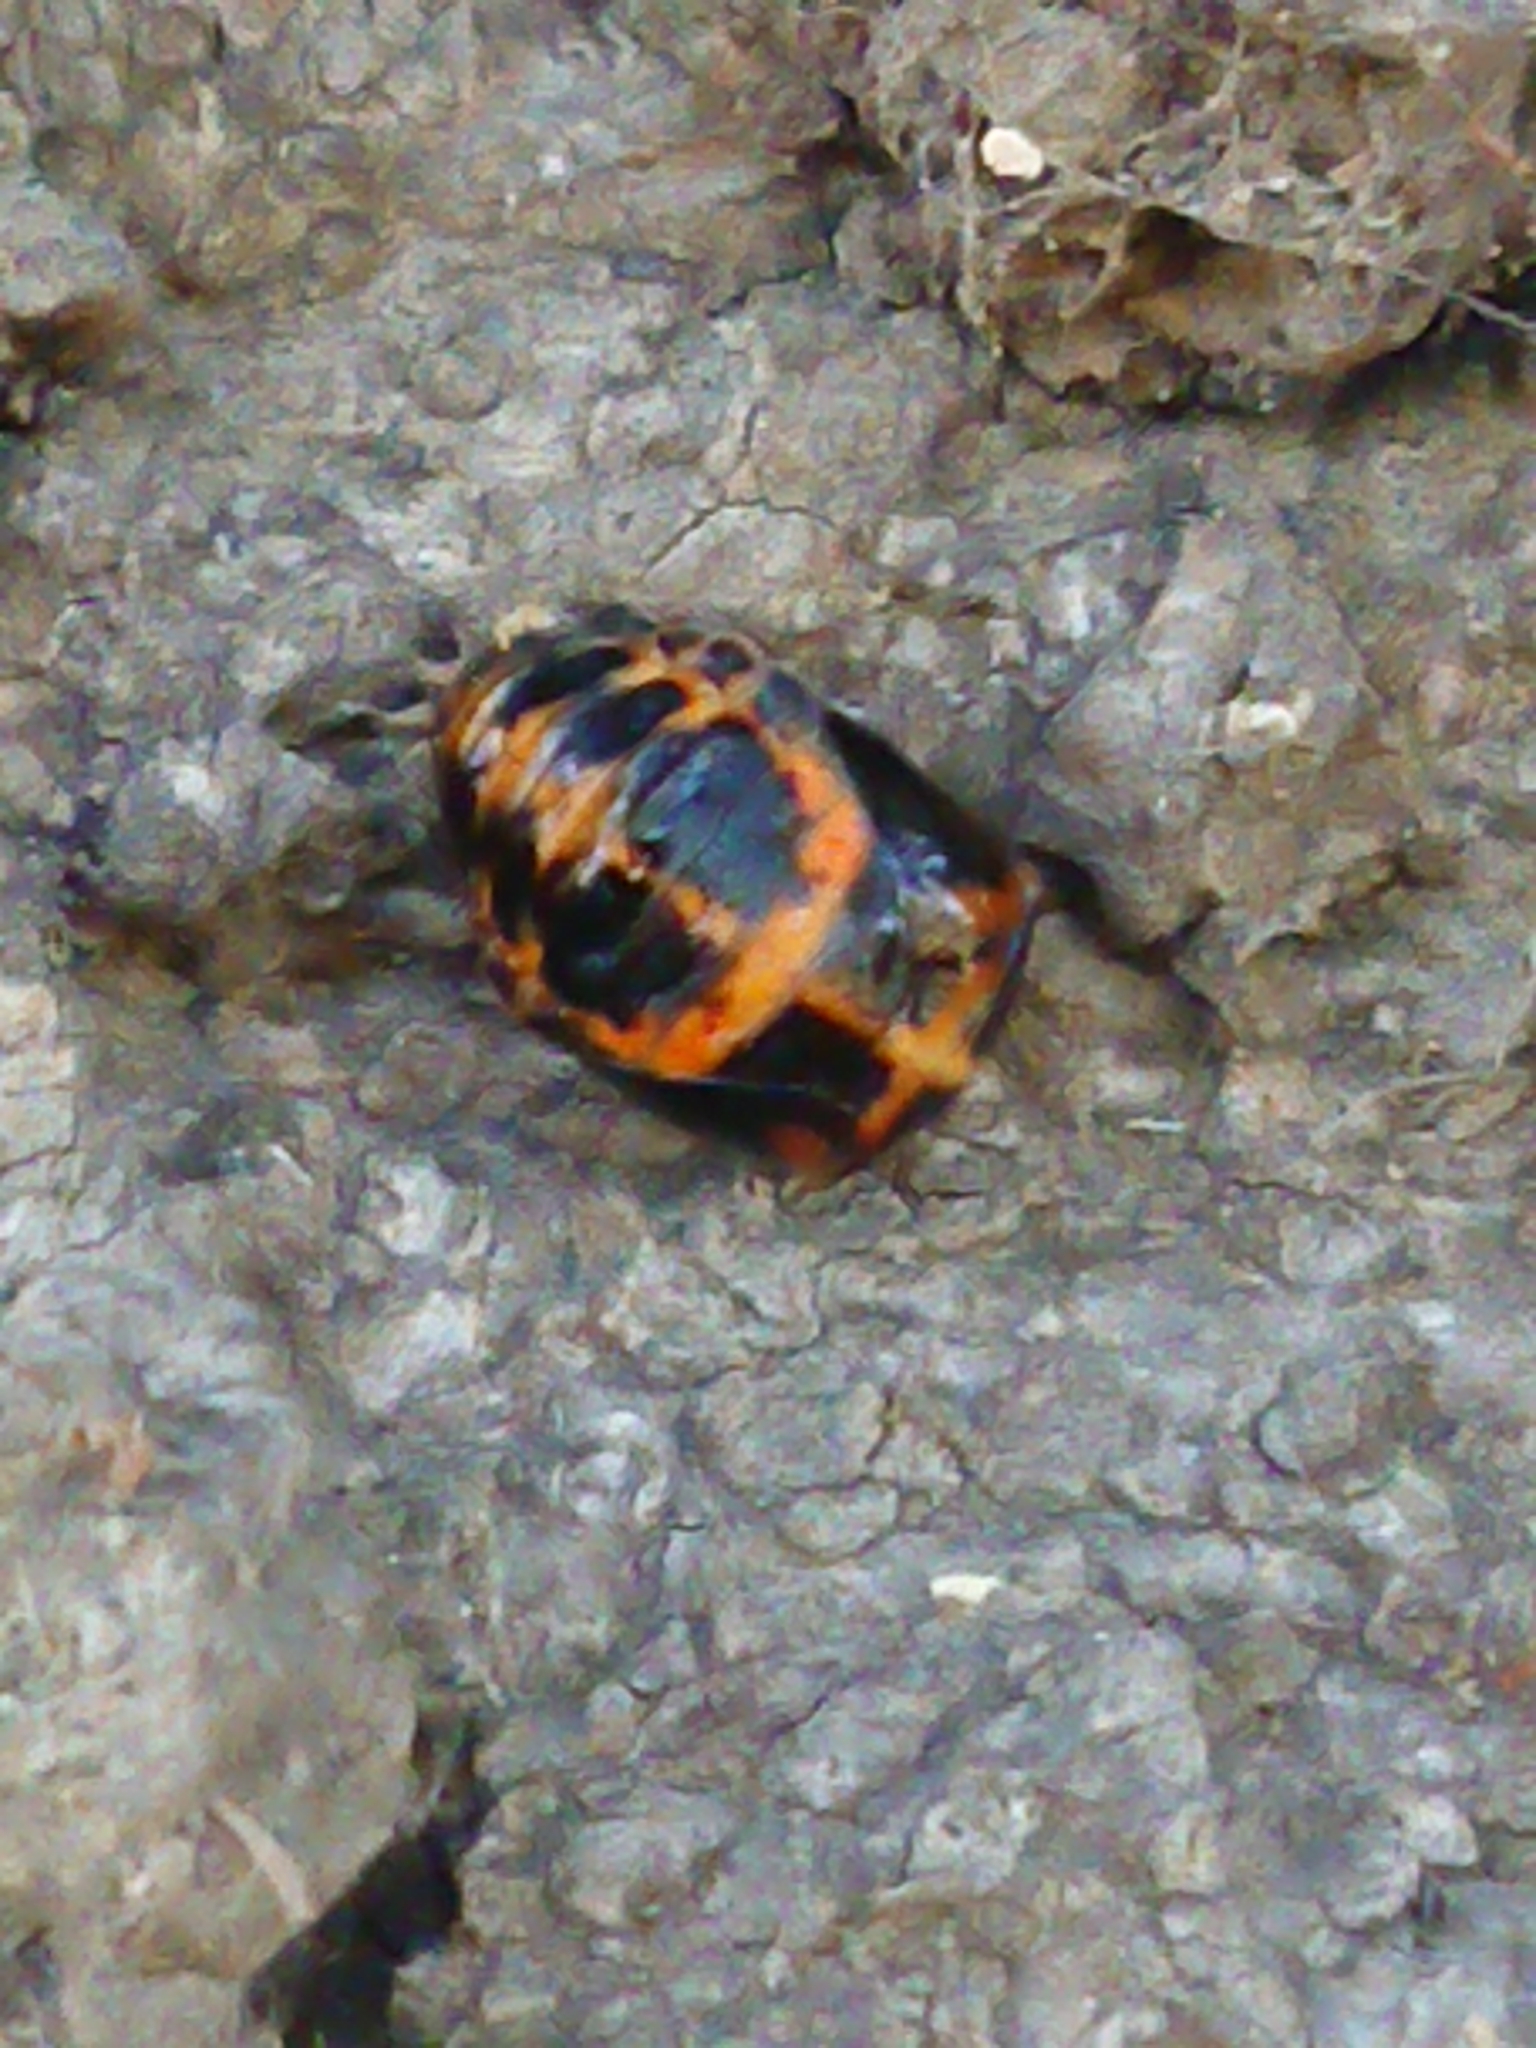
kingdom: Animalia
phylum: Arthropoda
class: Insecta
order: Coleoptera
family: Coccinellidae
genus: Harmonia
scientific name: Harmonia axyridis
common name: Harlequin ladybird
